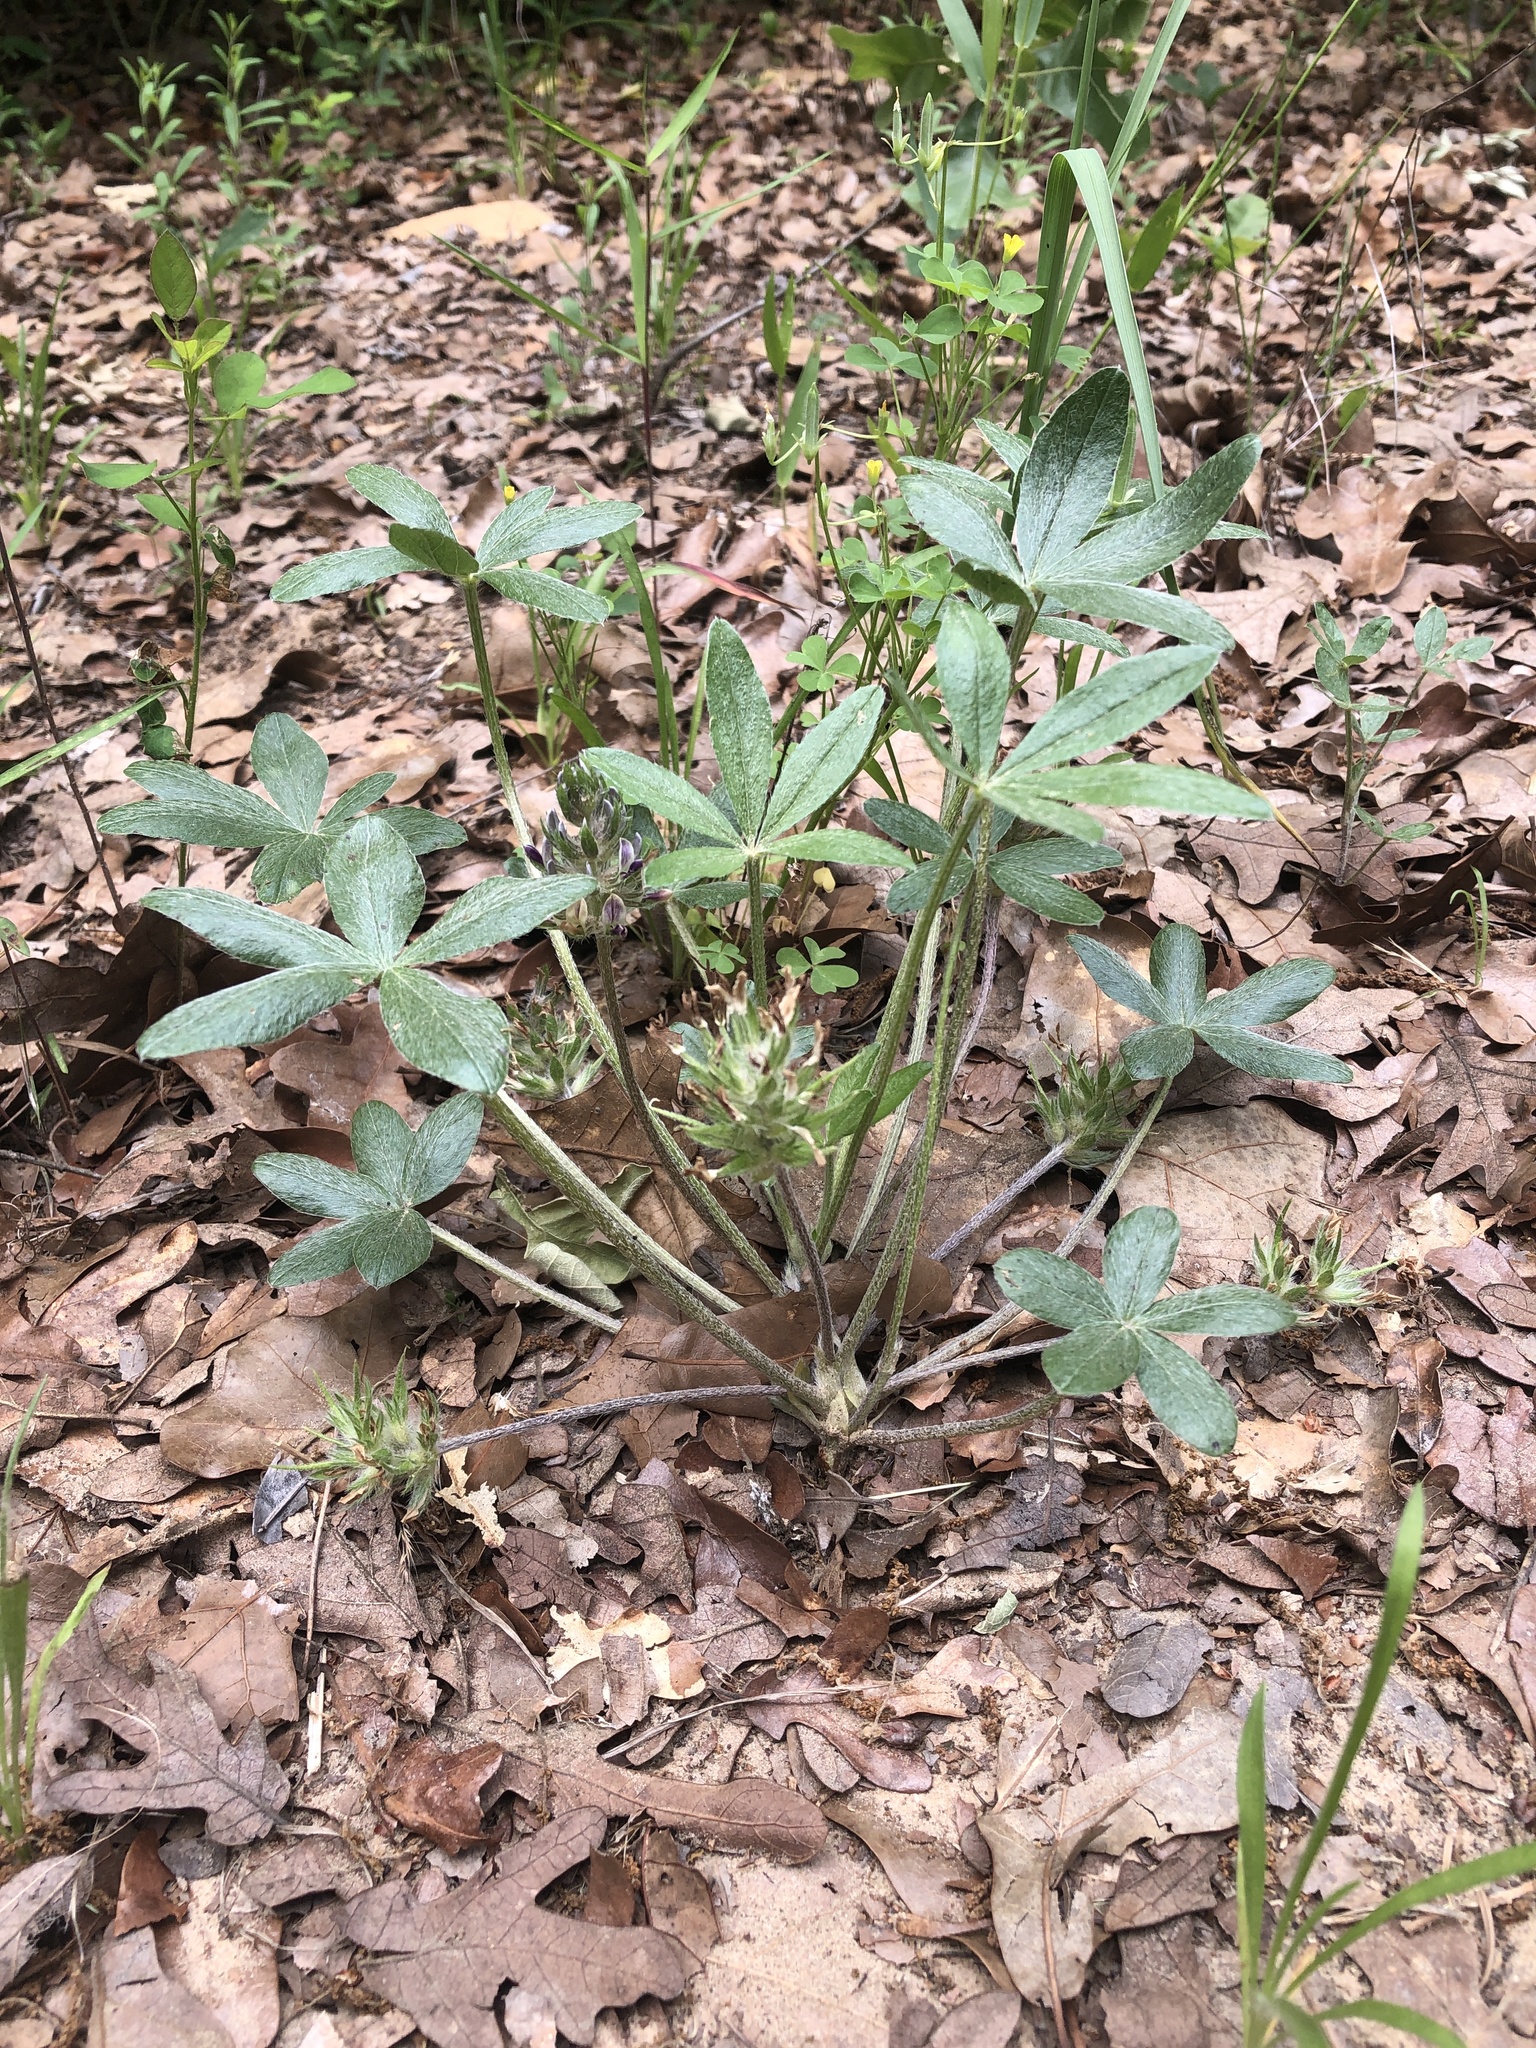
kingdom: Plantae
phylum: Tracheophyta
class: Magnoliopsida
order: Fabales
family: Fabaceae
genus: Pediomelum
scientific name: Pediomelum hypogaeum
